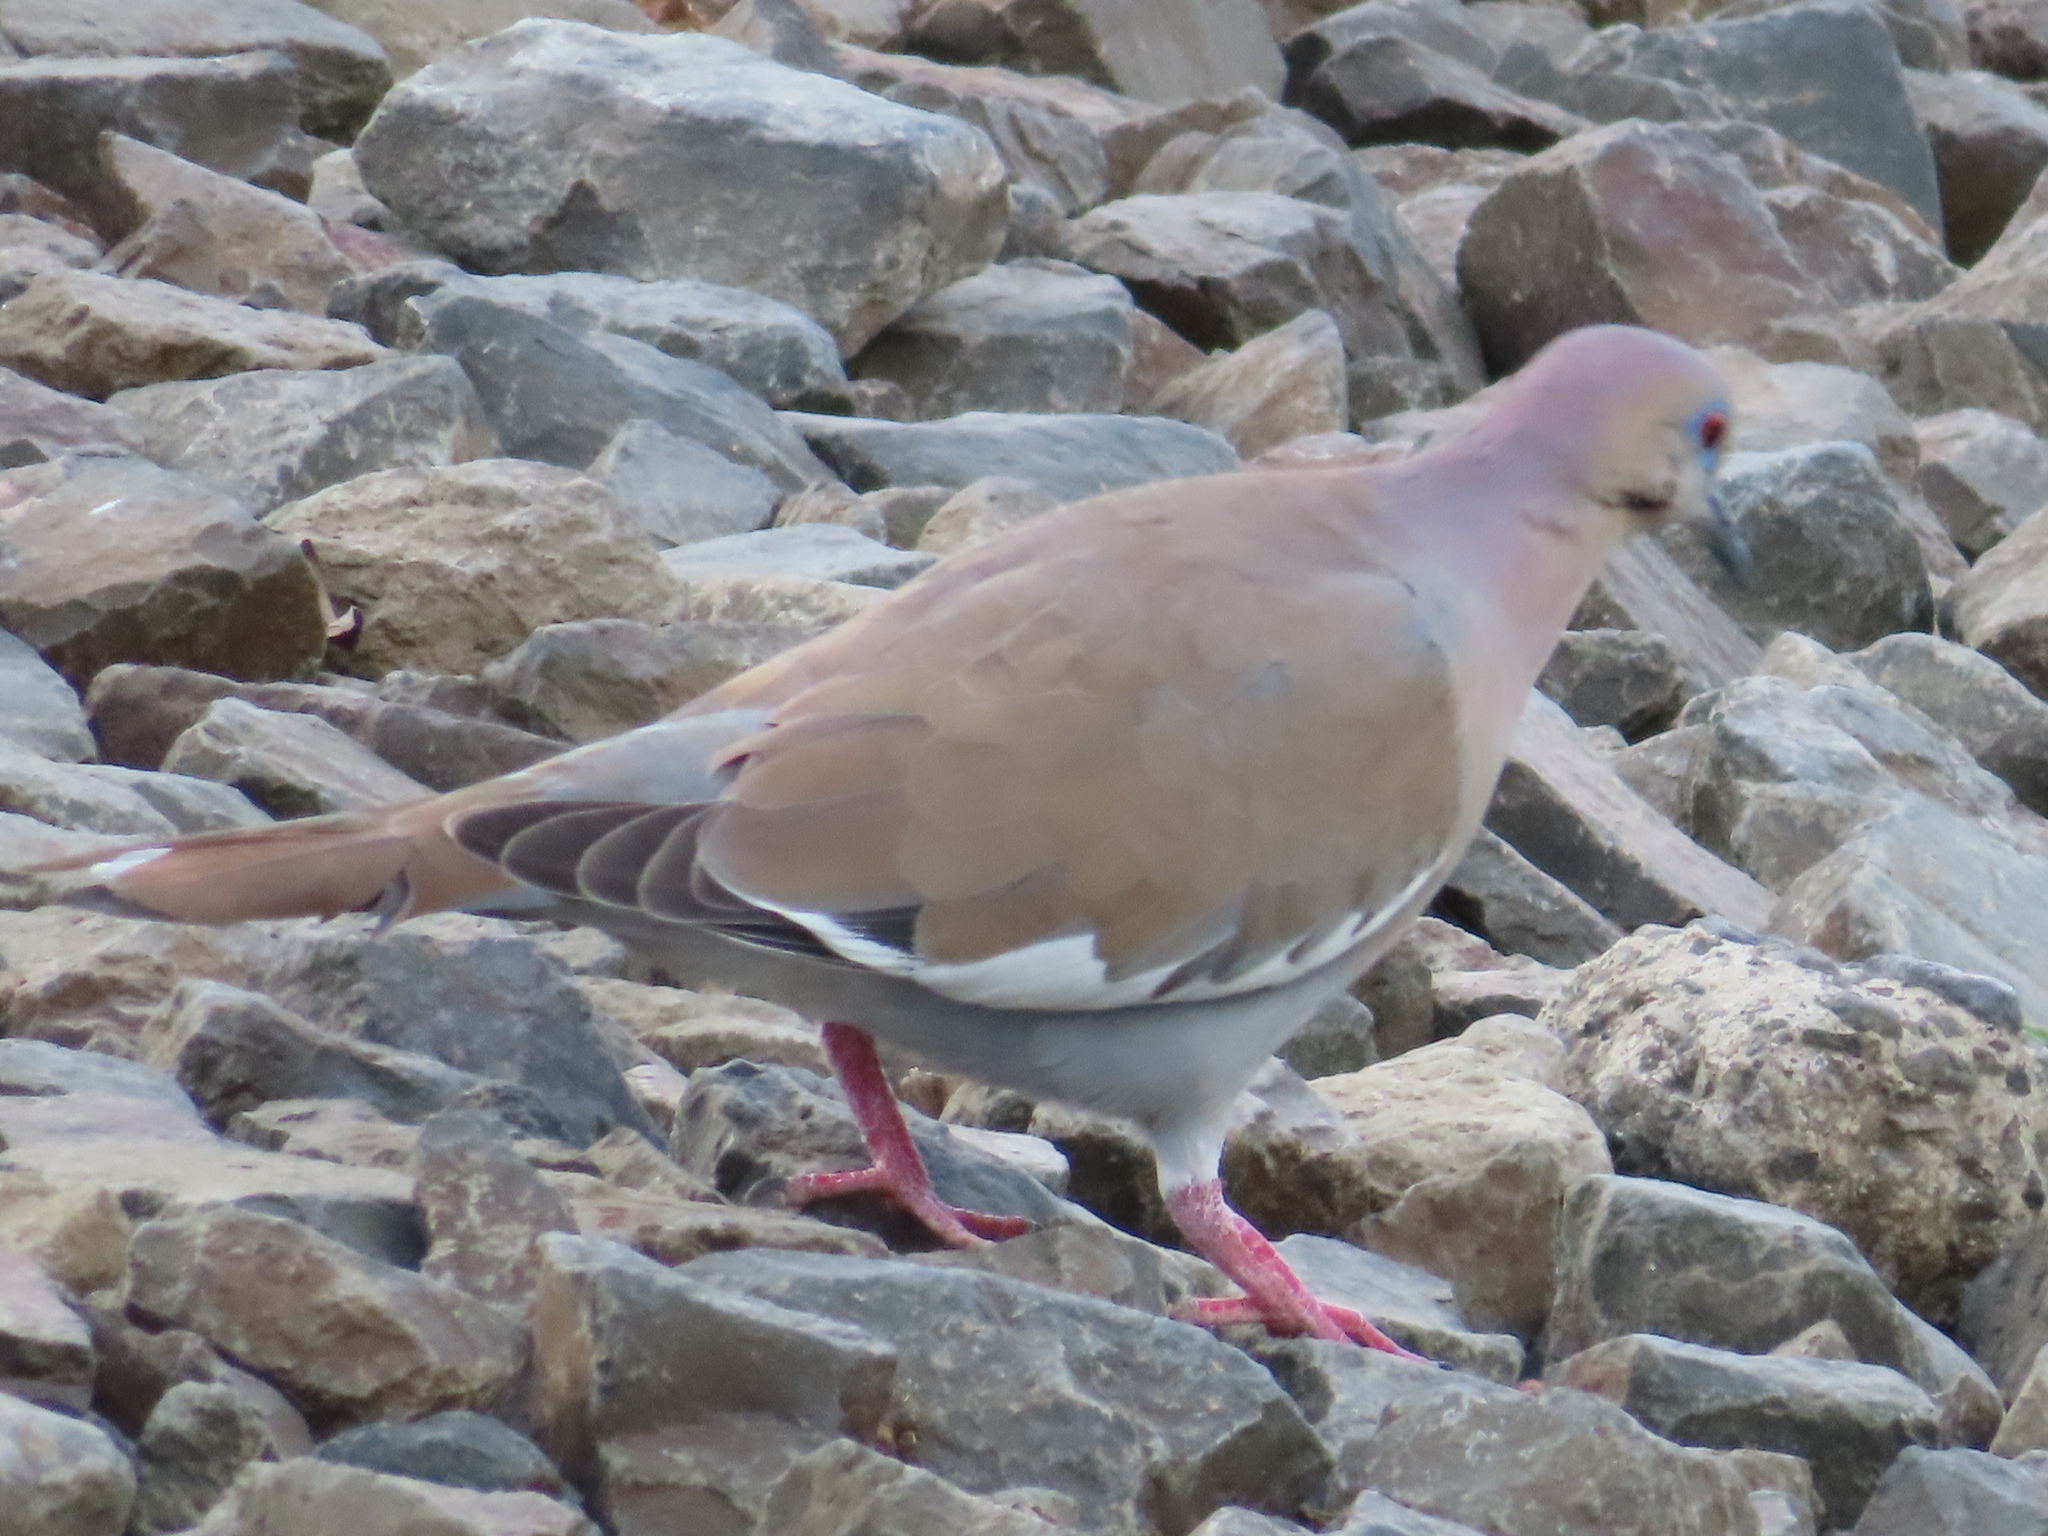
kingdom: Animalia
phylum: Chordata
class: Aves
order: Columbiformes
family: Columbidae
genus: Zenaida
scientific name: Zenaida asiatica
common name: White-winged dove
